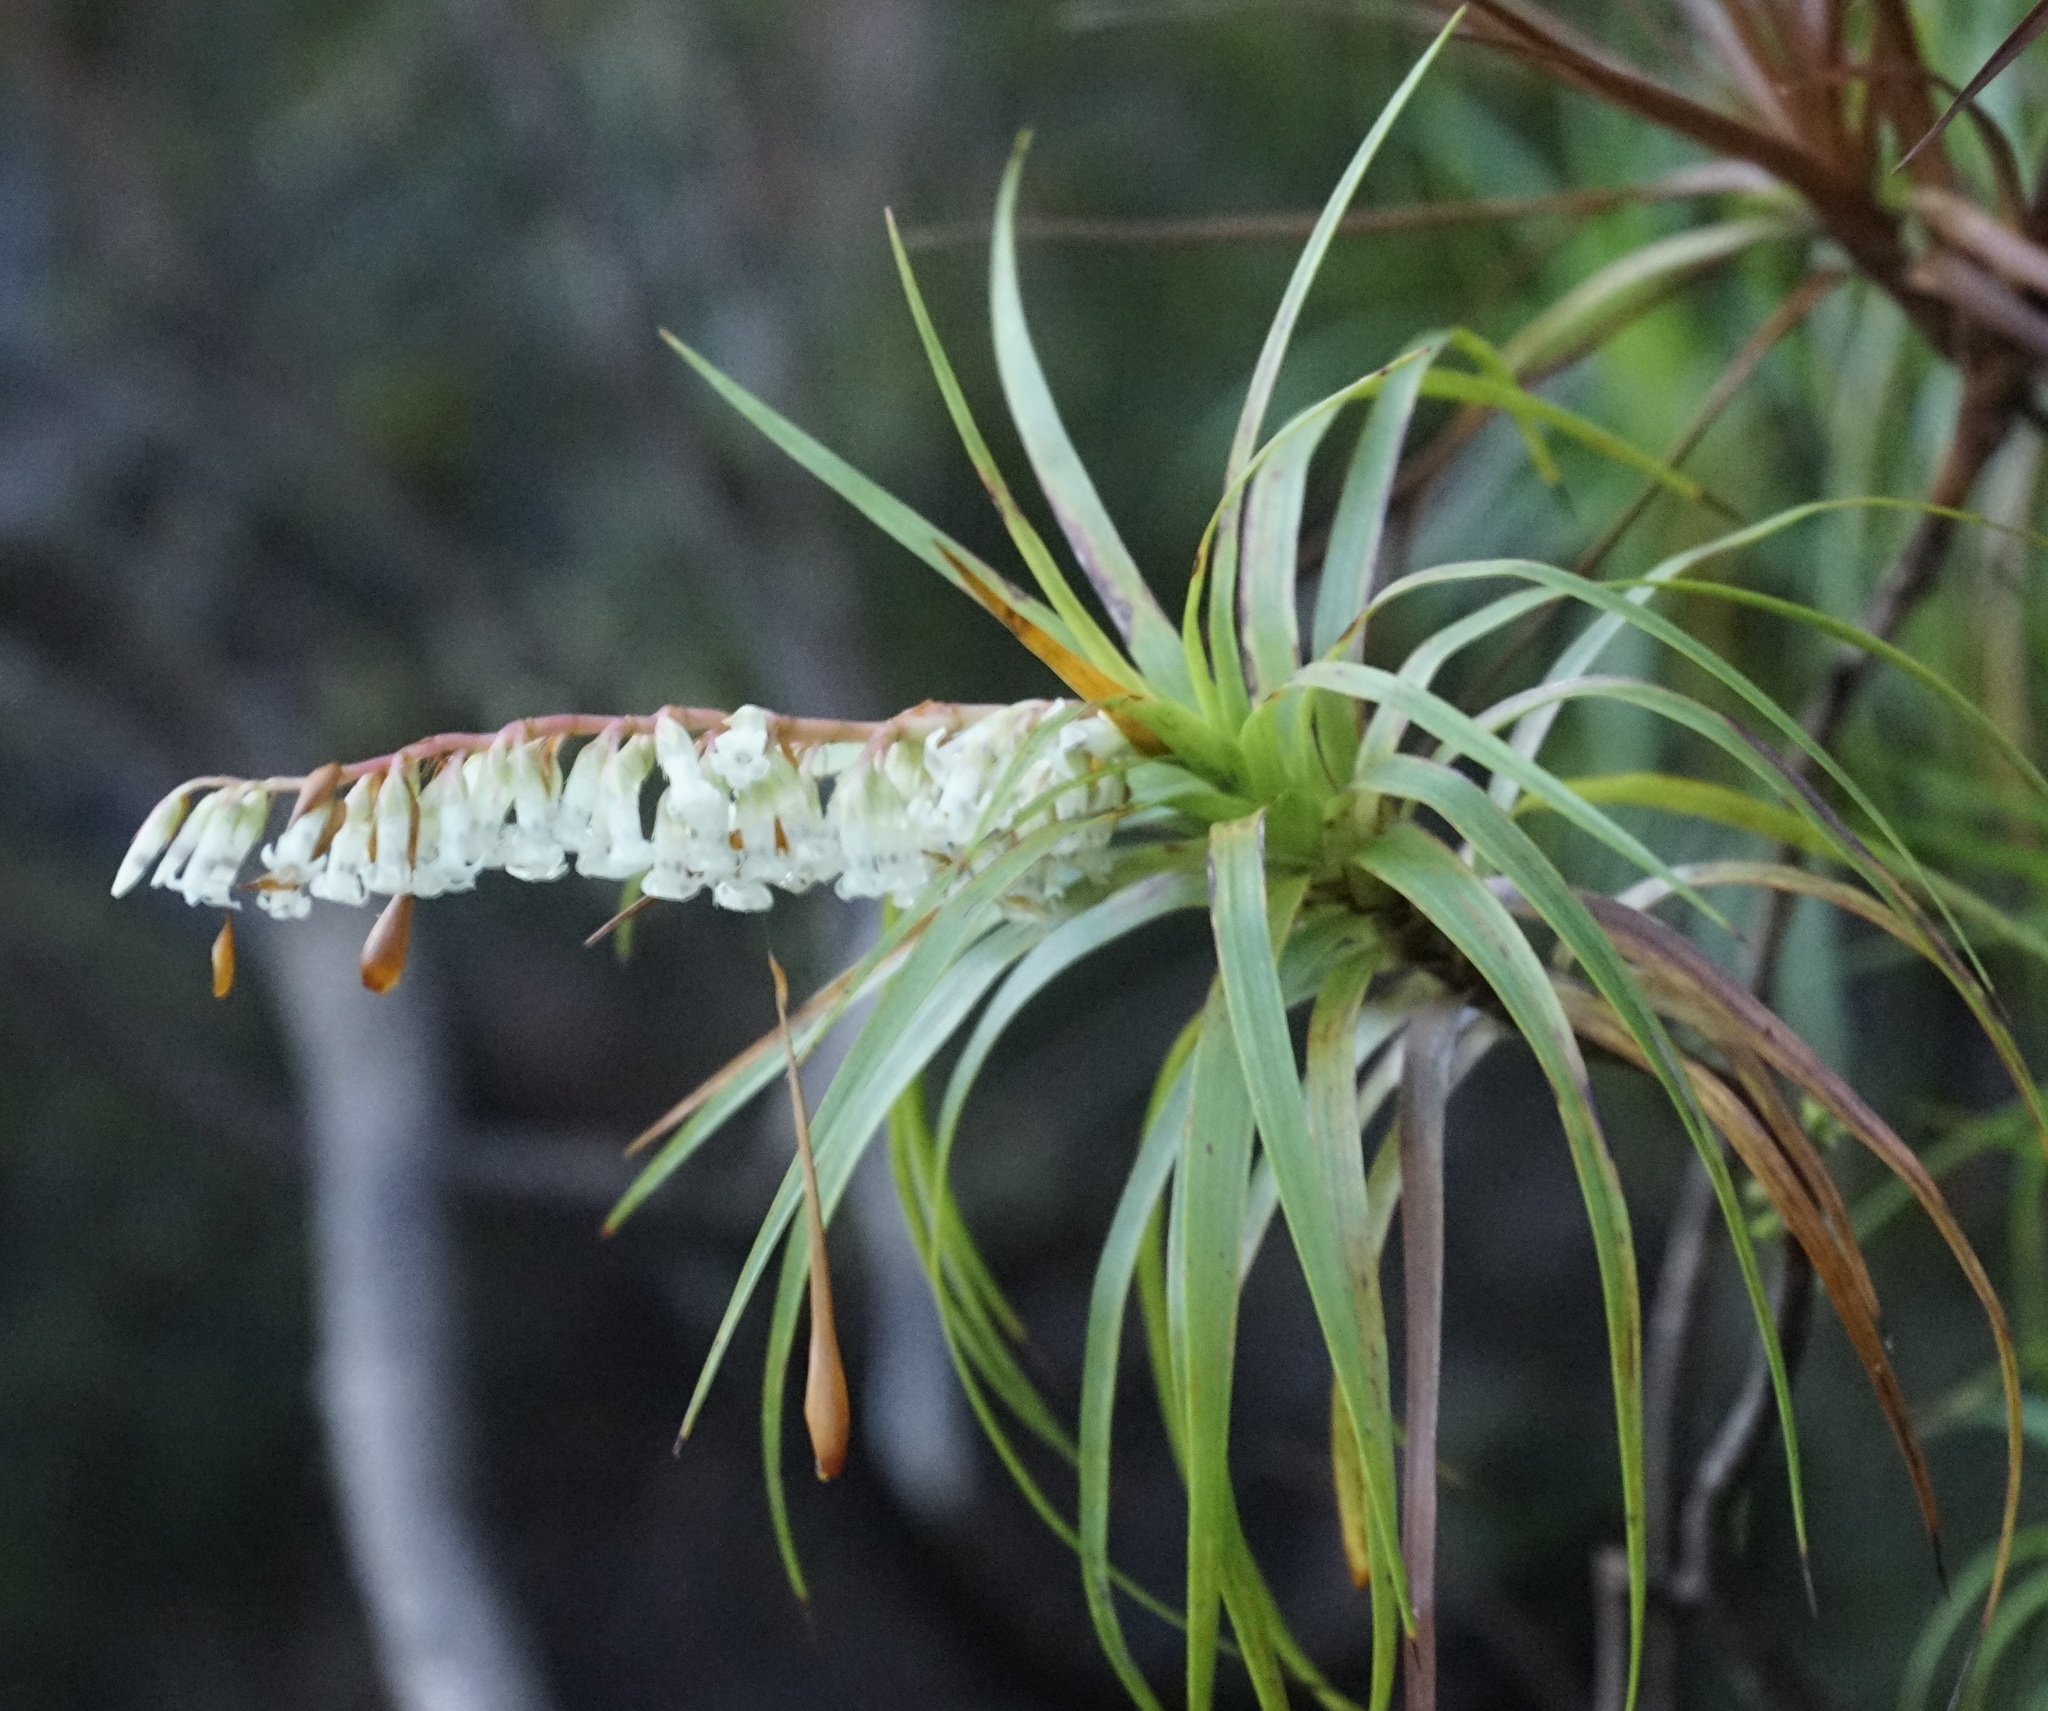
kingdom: Plantae
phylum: Tracheophyta
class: Magnoliopsida
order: Ericales
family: Ericaceae
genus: Dracophyllum
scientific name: Dracophyllum secundum
